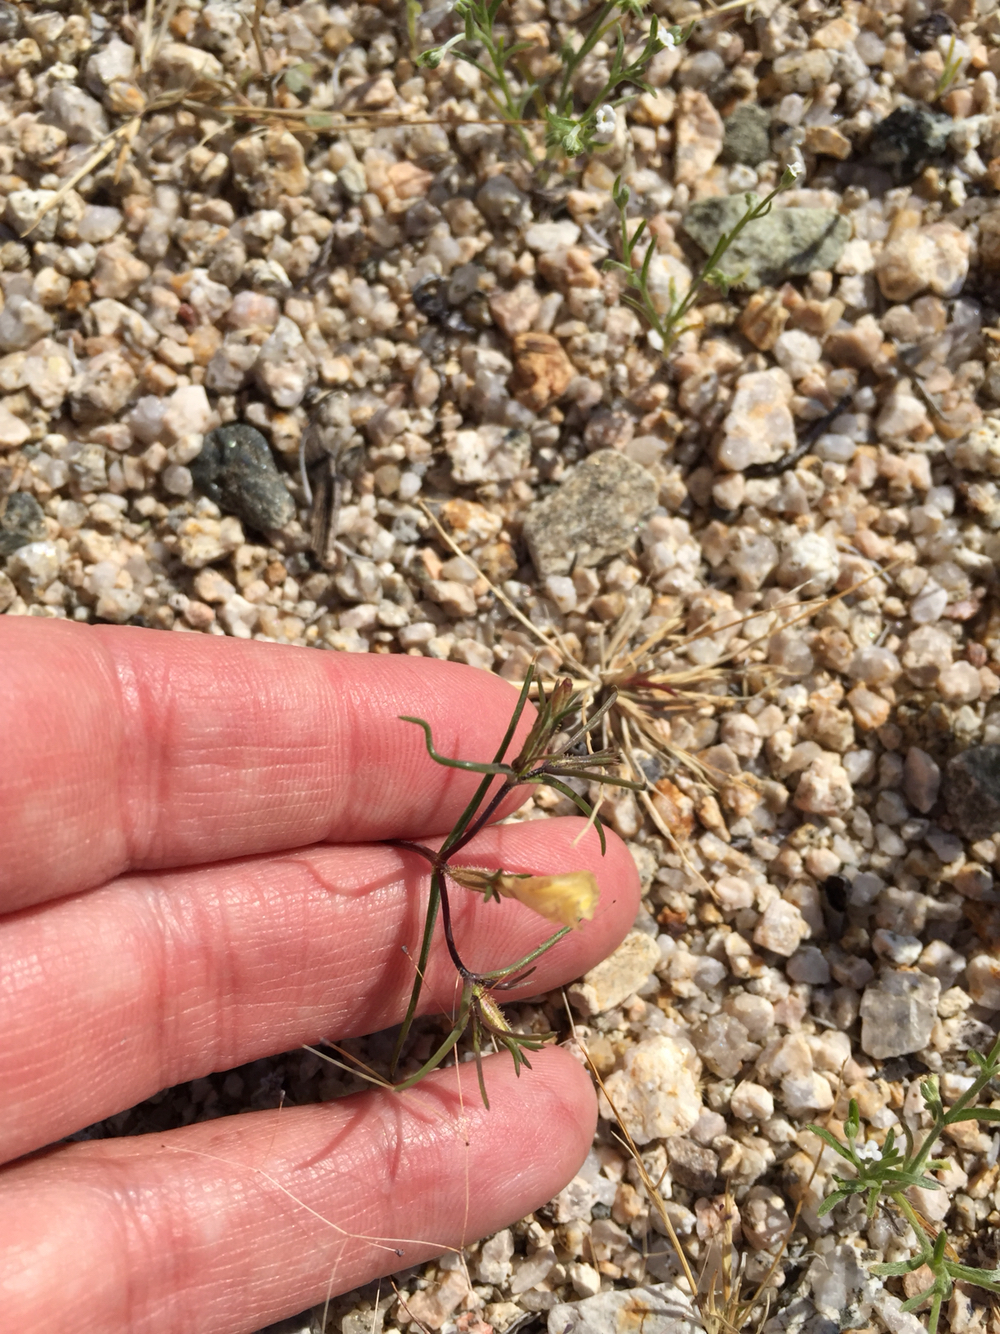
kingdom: Plantae
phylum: Tracheophyta
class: Magnoliopsida
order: Ericales
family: Polemoniaceae
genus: Linanthus
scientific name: Linanthus jonesii
